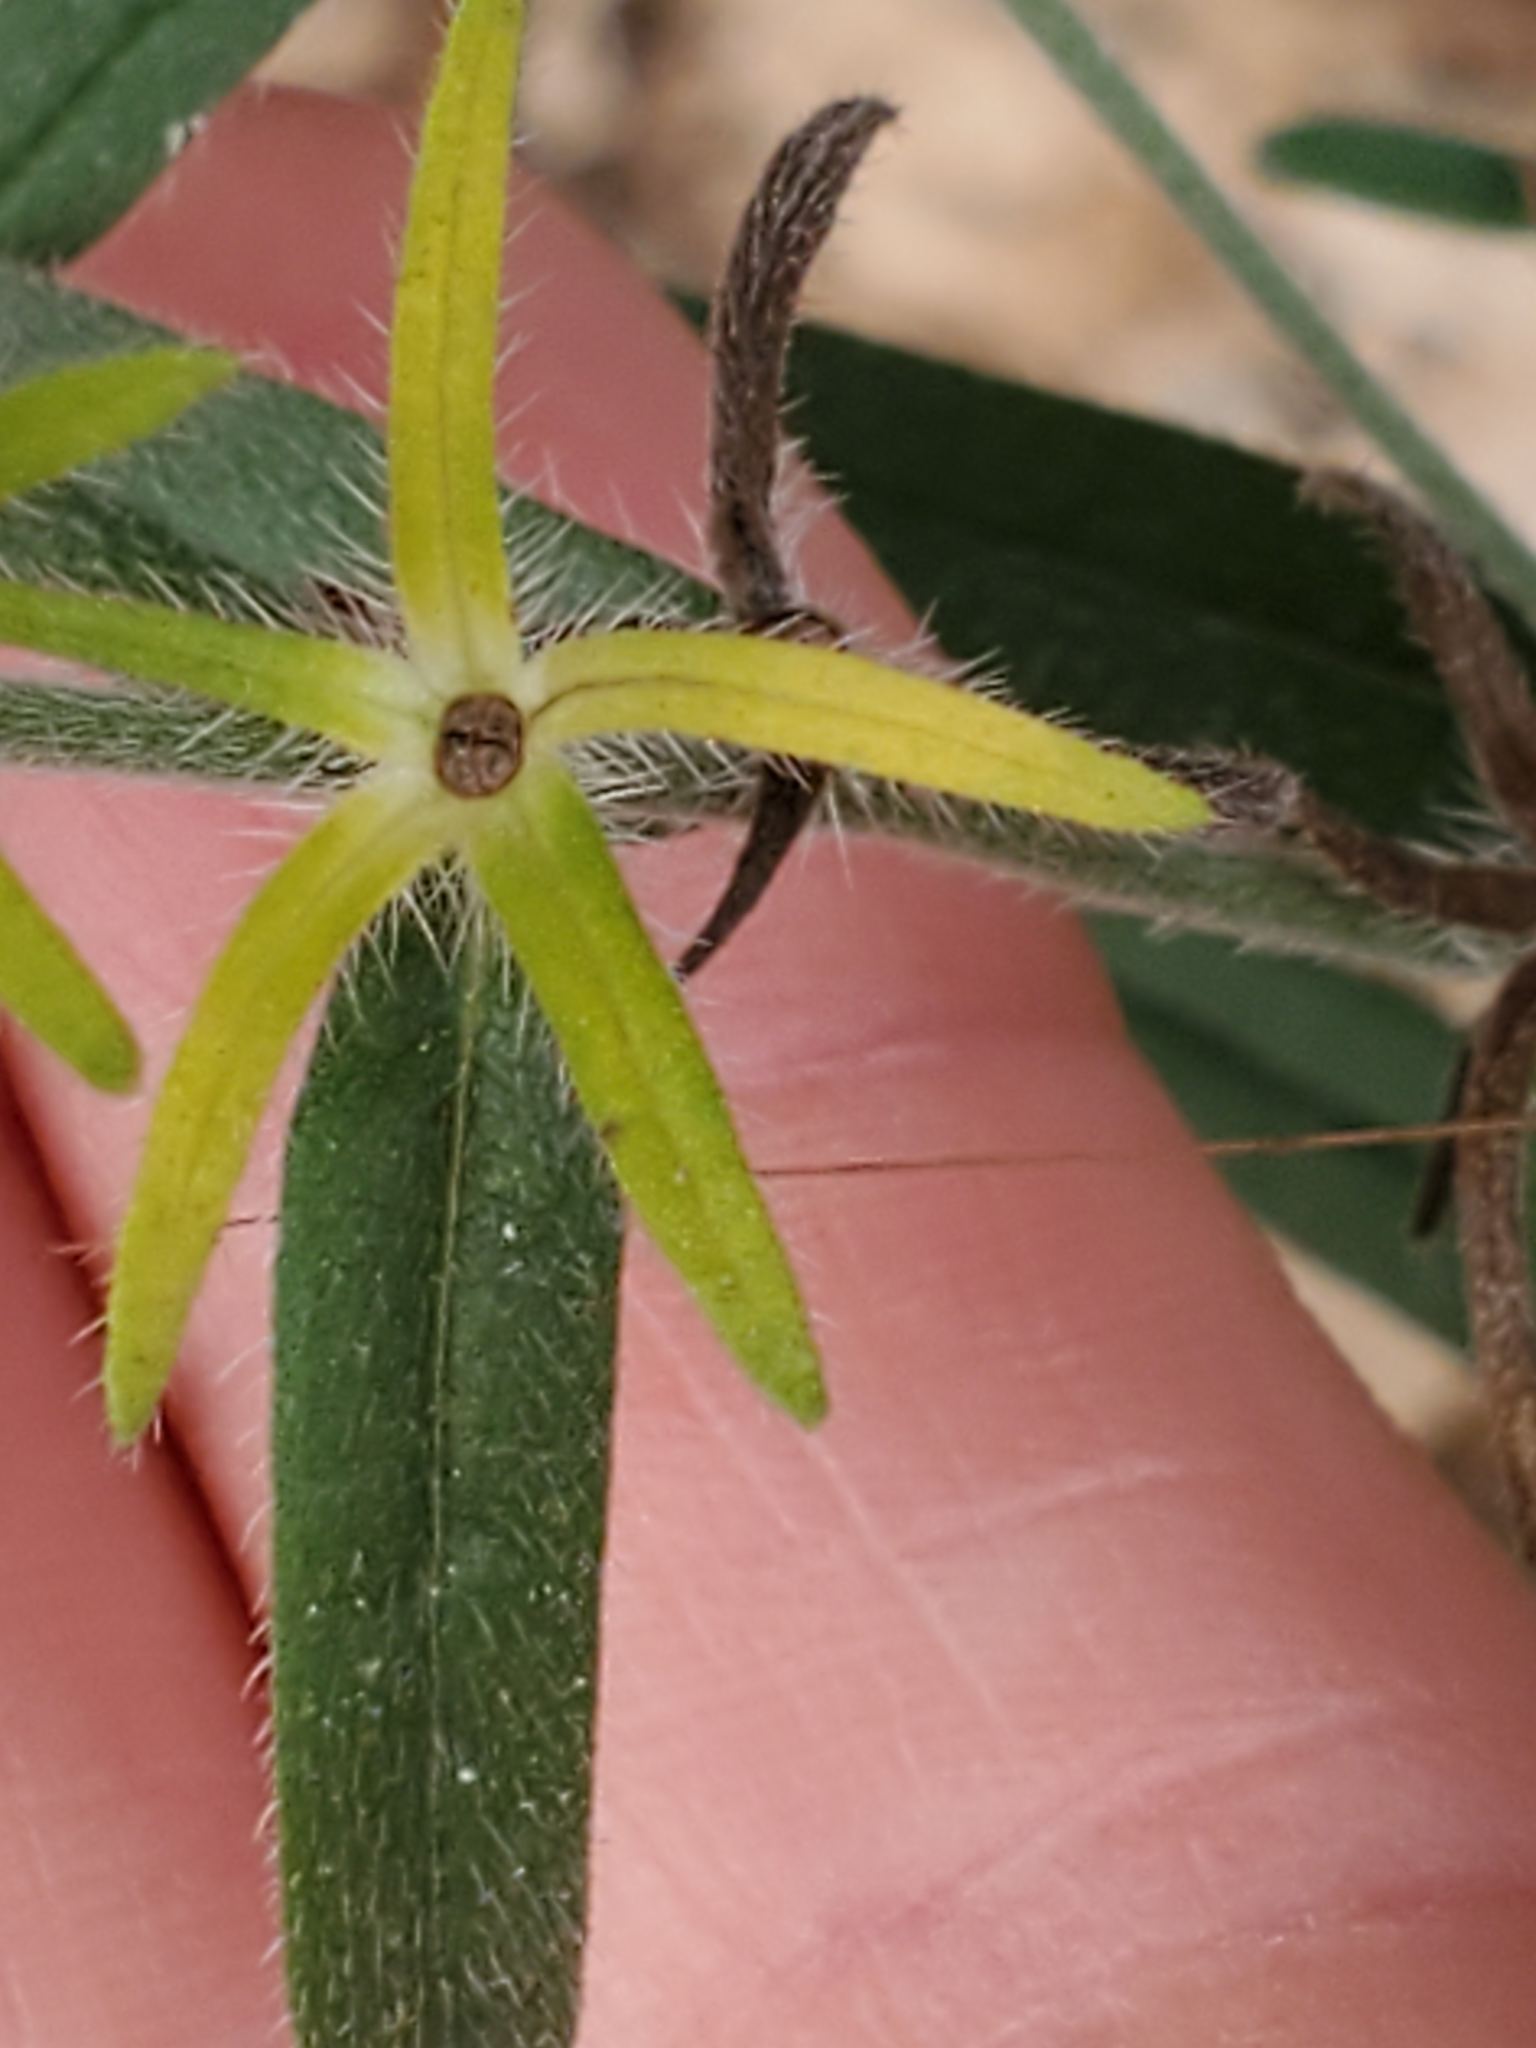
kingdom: Plantae
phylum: Tracheophyta
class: Magnoliopsida
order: Boraginales
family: Boraginaceae
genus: Lithospermum
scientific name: Lithospermum mirabile
